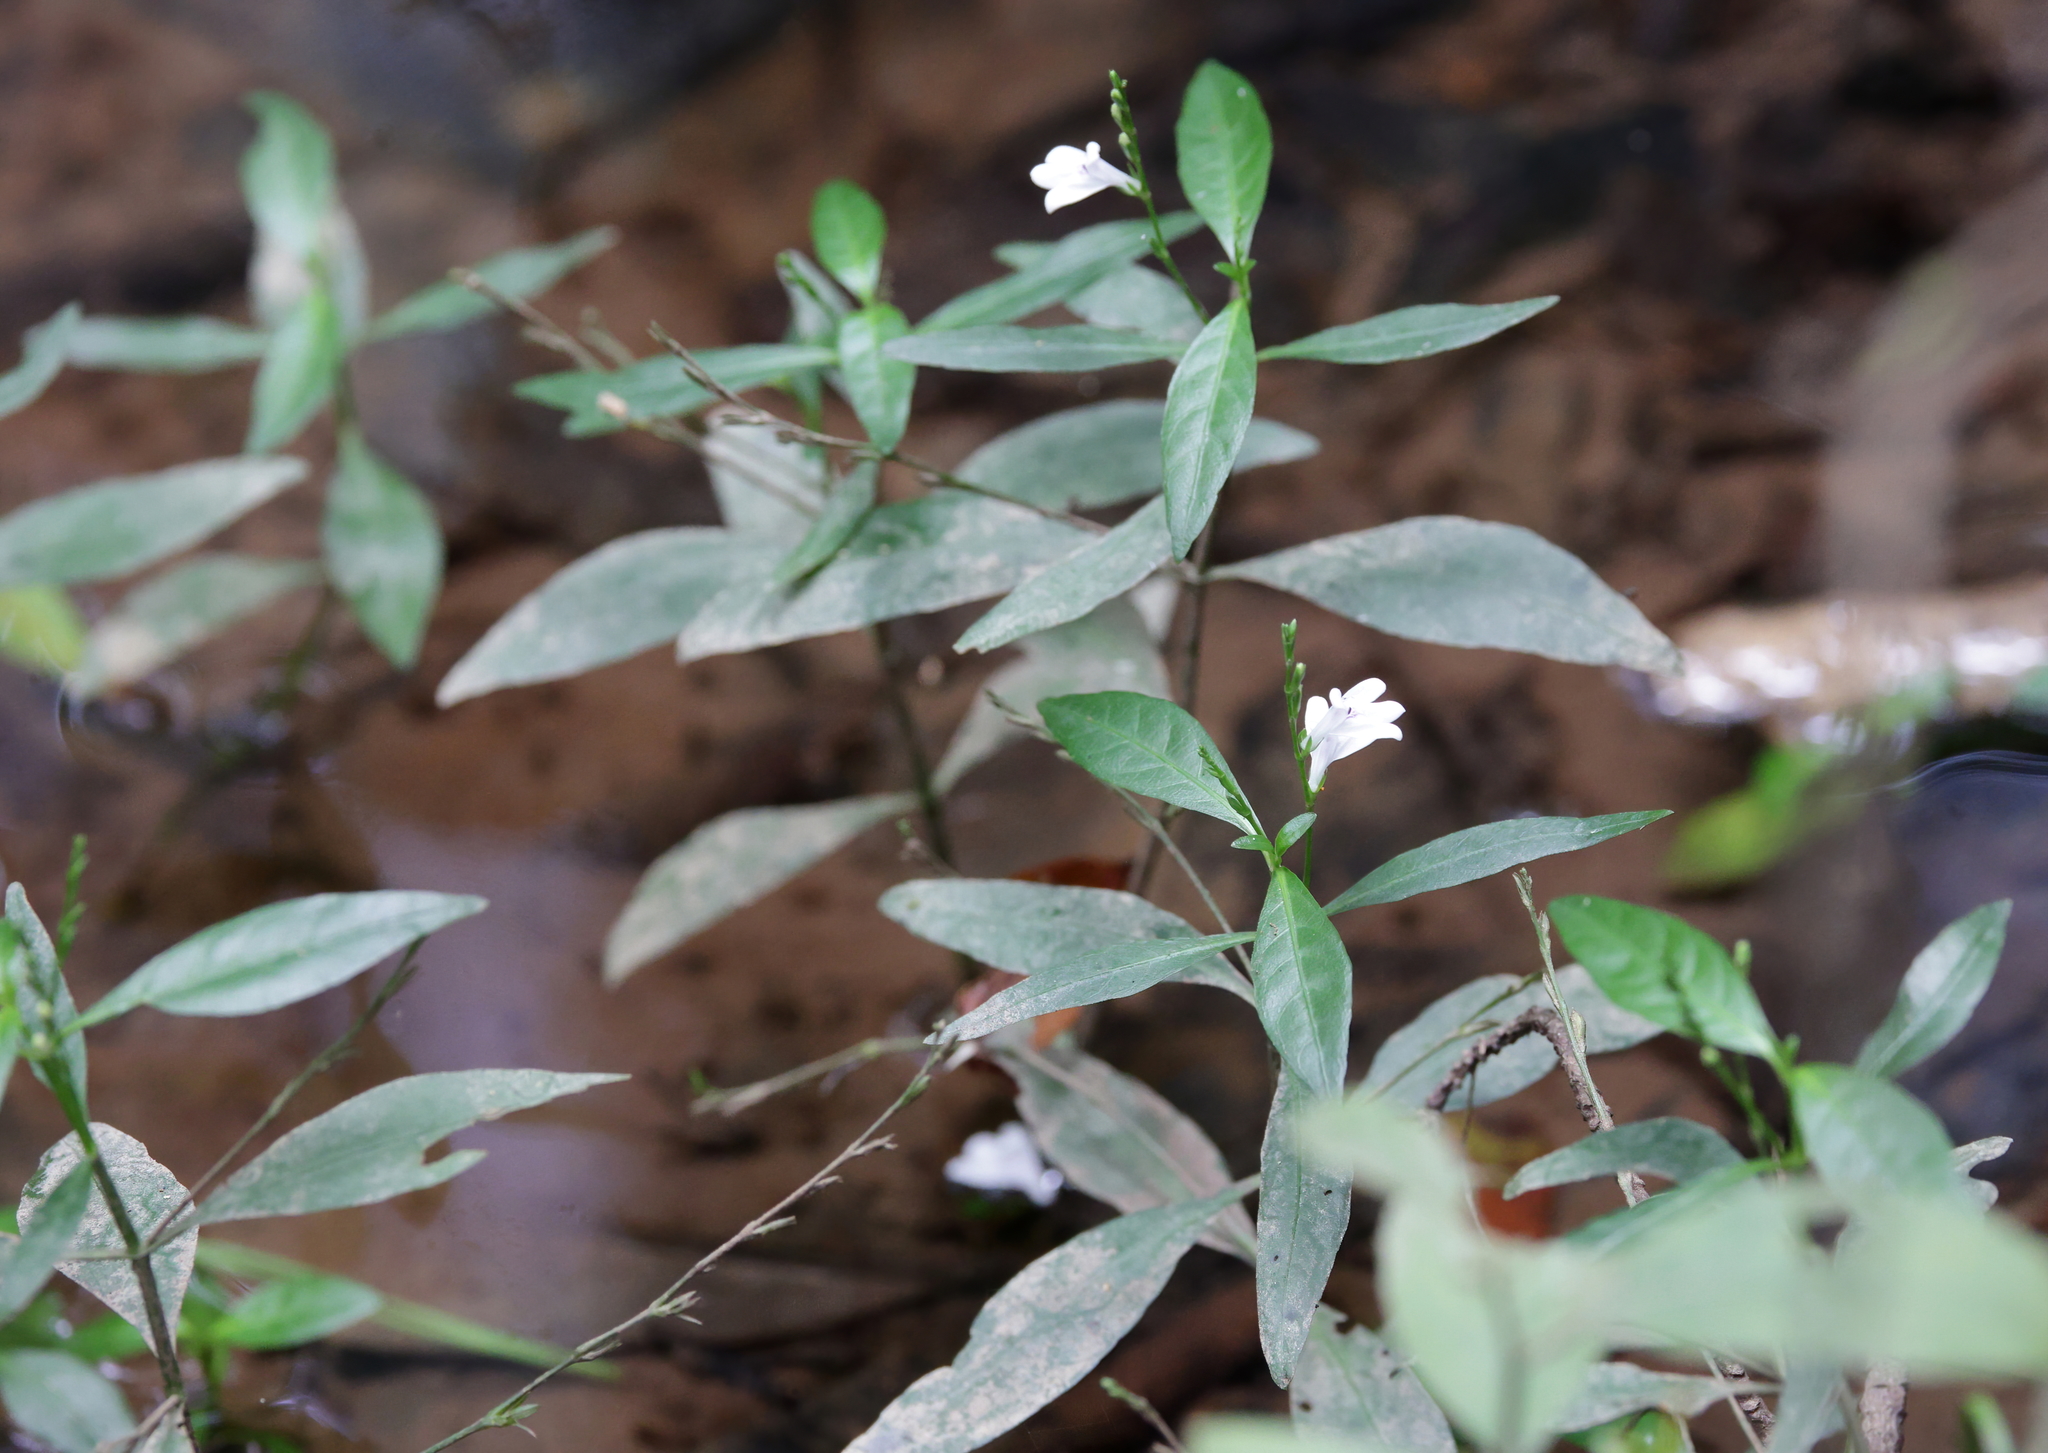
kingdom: Plantae
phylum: Tracheophyta
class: Magnoliopsida
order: Lamiales
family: Acanthaceae
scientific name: Acanthaceae
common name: Acanthaceae
